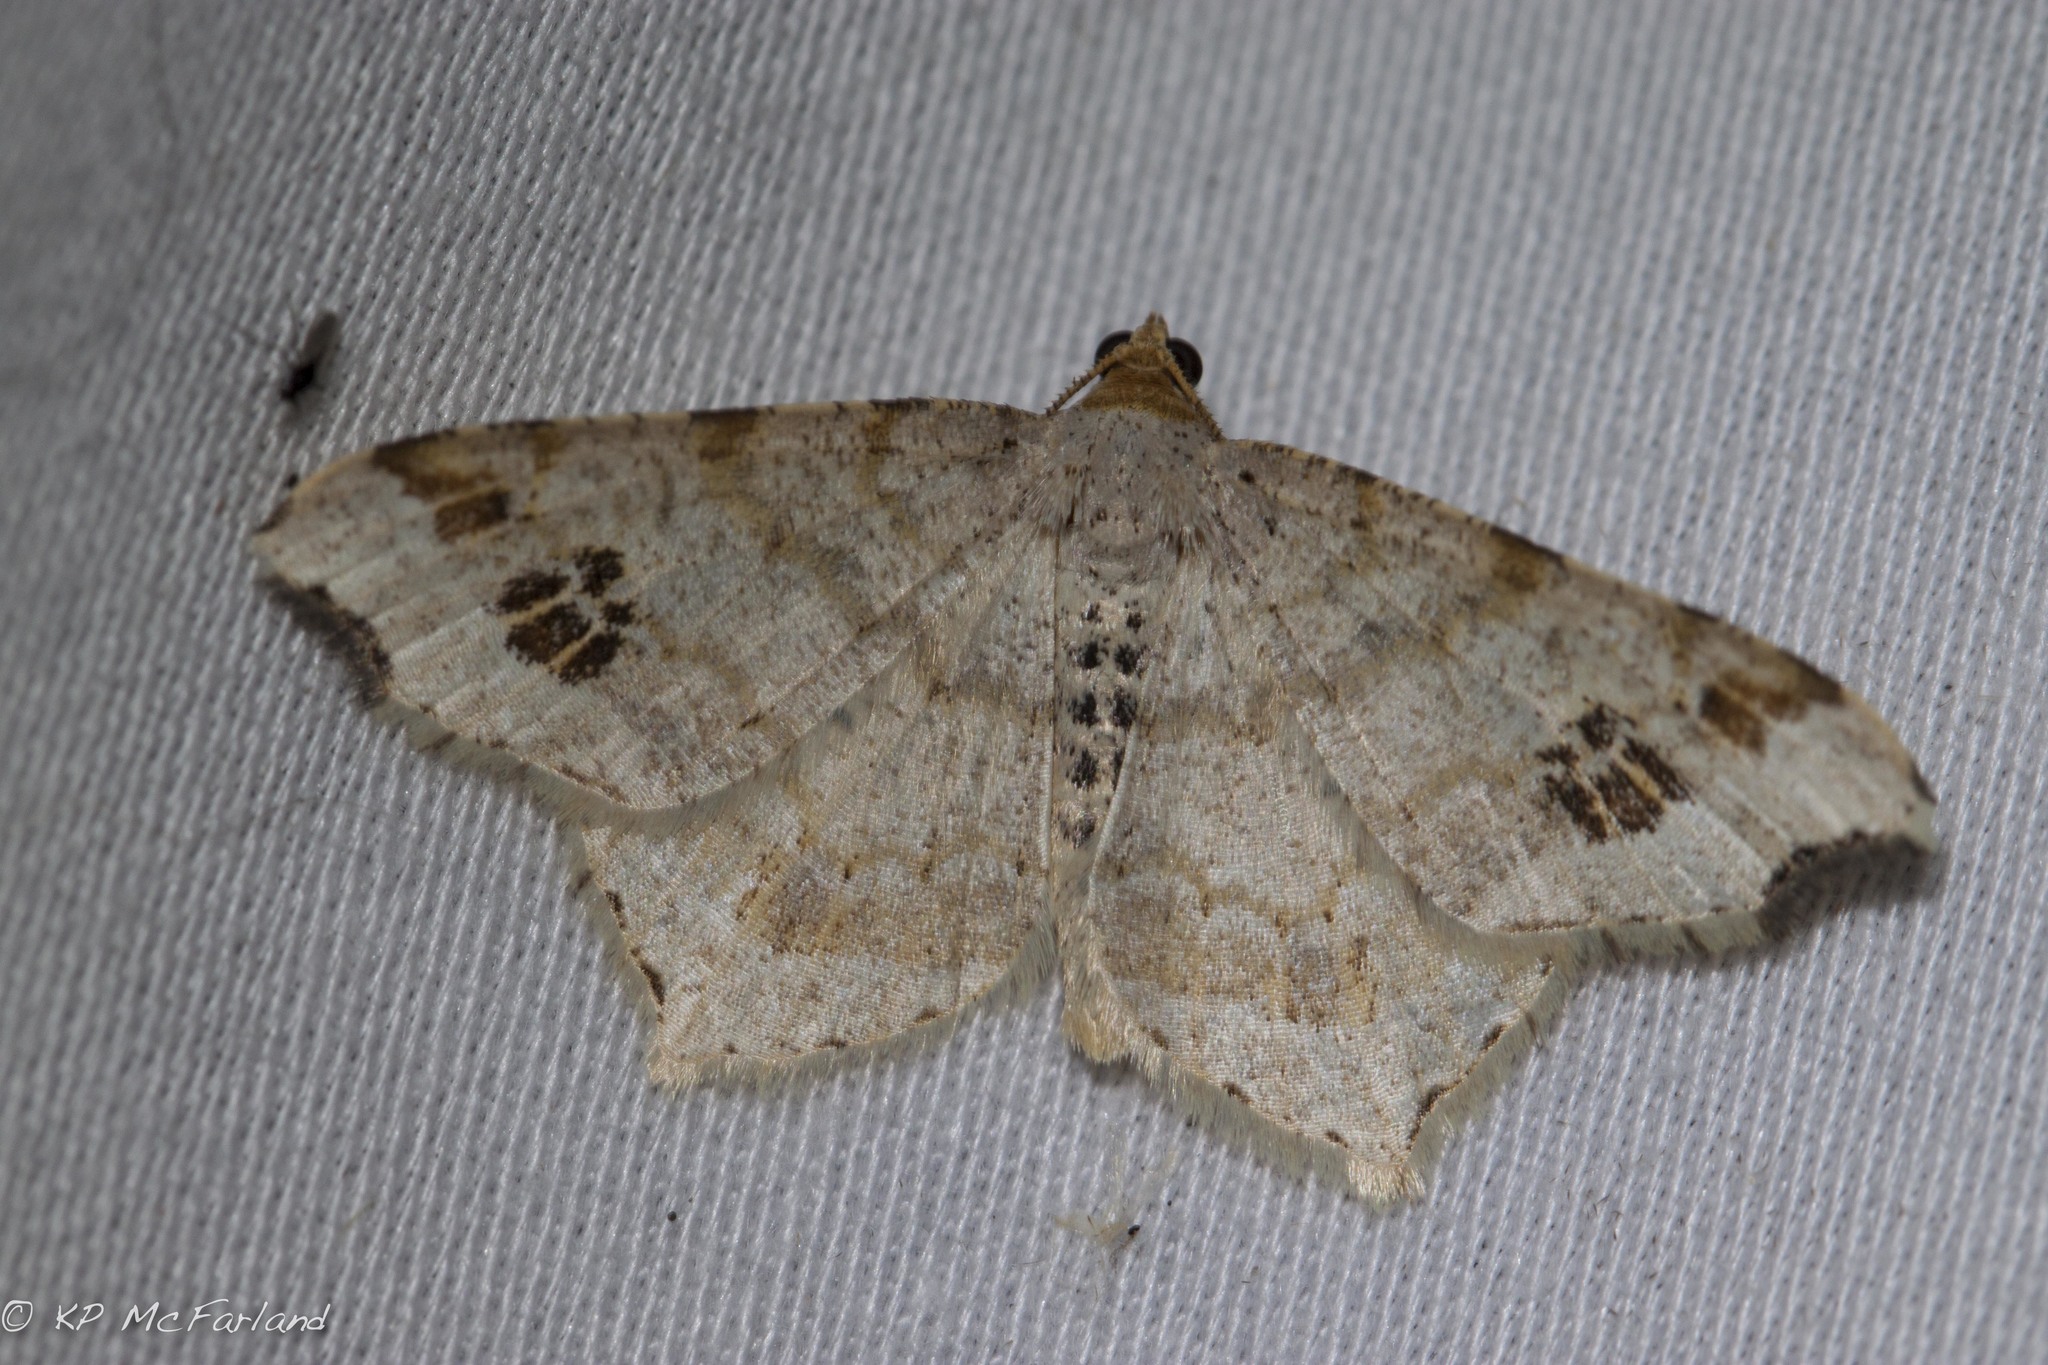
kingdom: Animalia
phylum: Arthropoda
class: Insecta
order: Lepidoptera
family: Geometridae
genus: Macaria
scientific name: Macaria aemulataria
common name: Common angle
